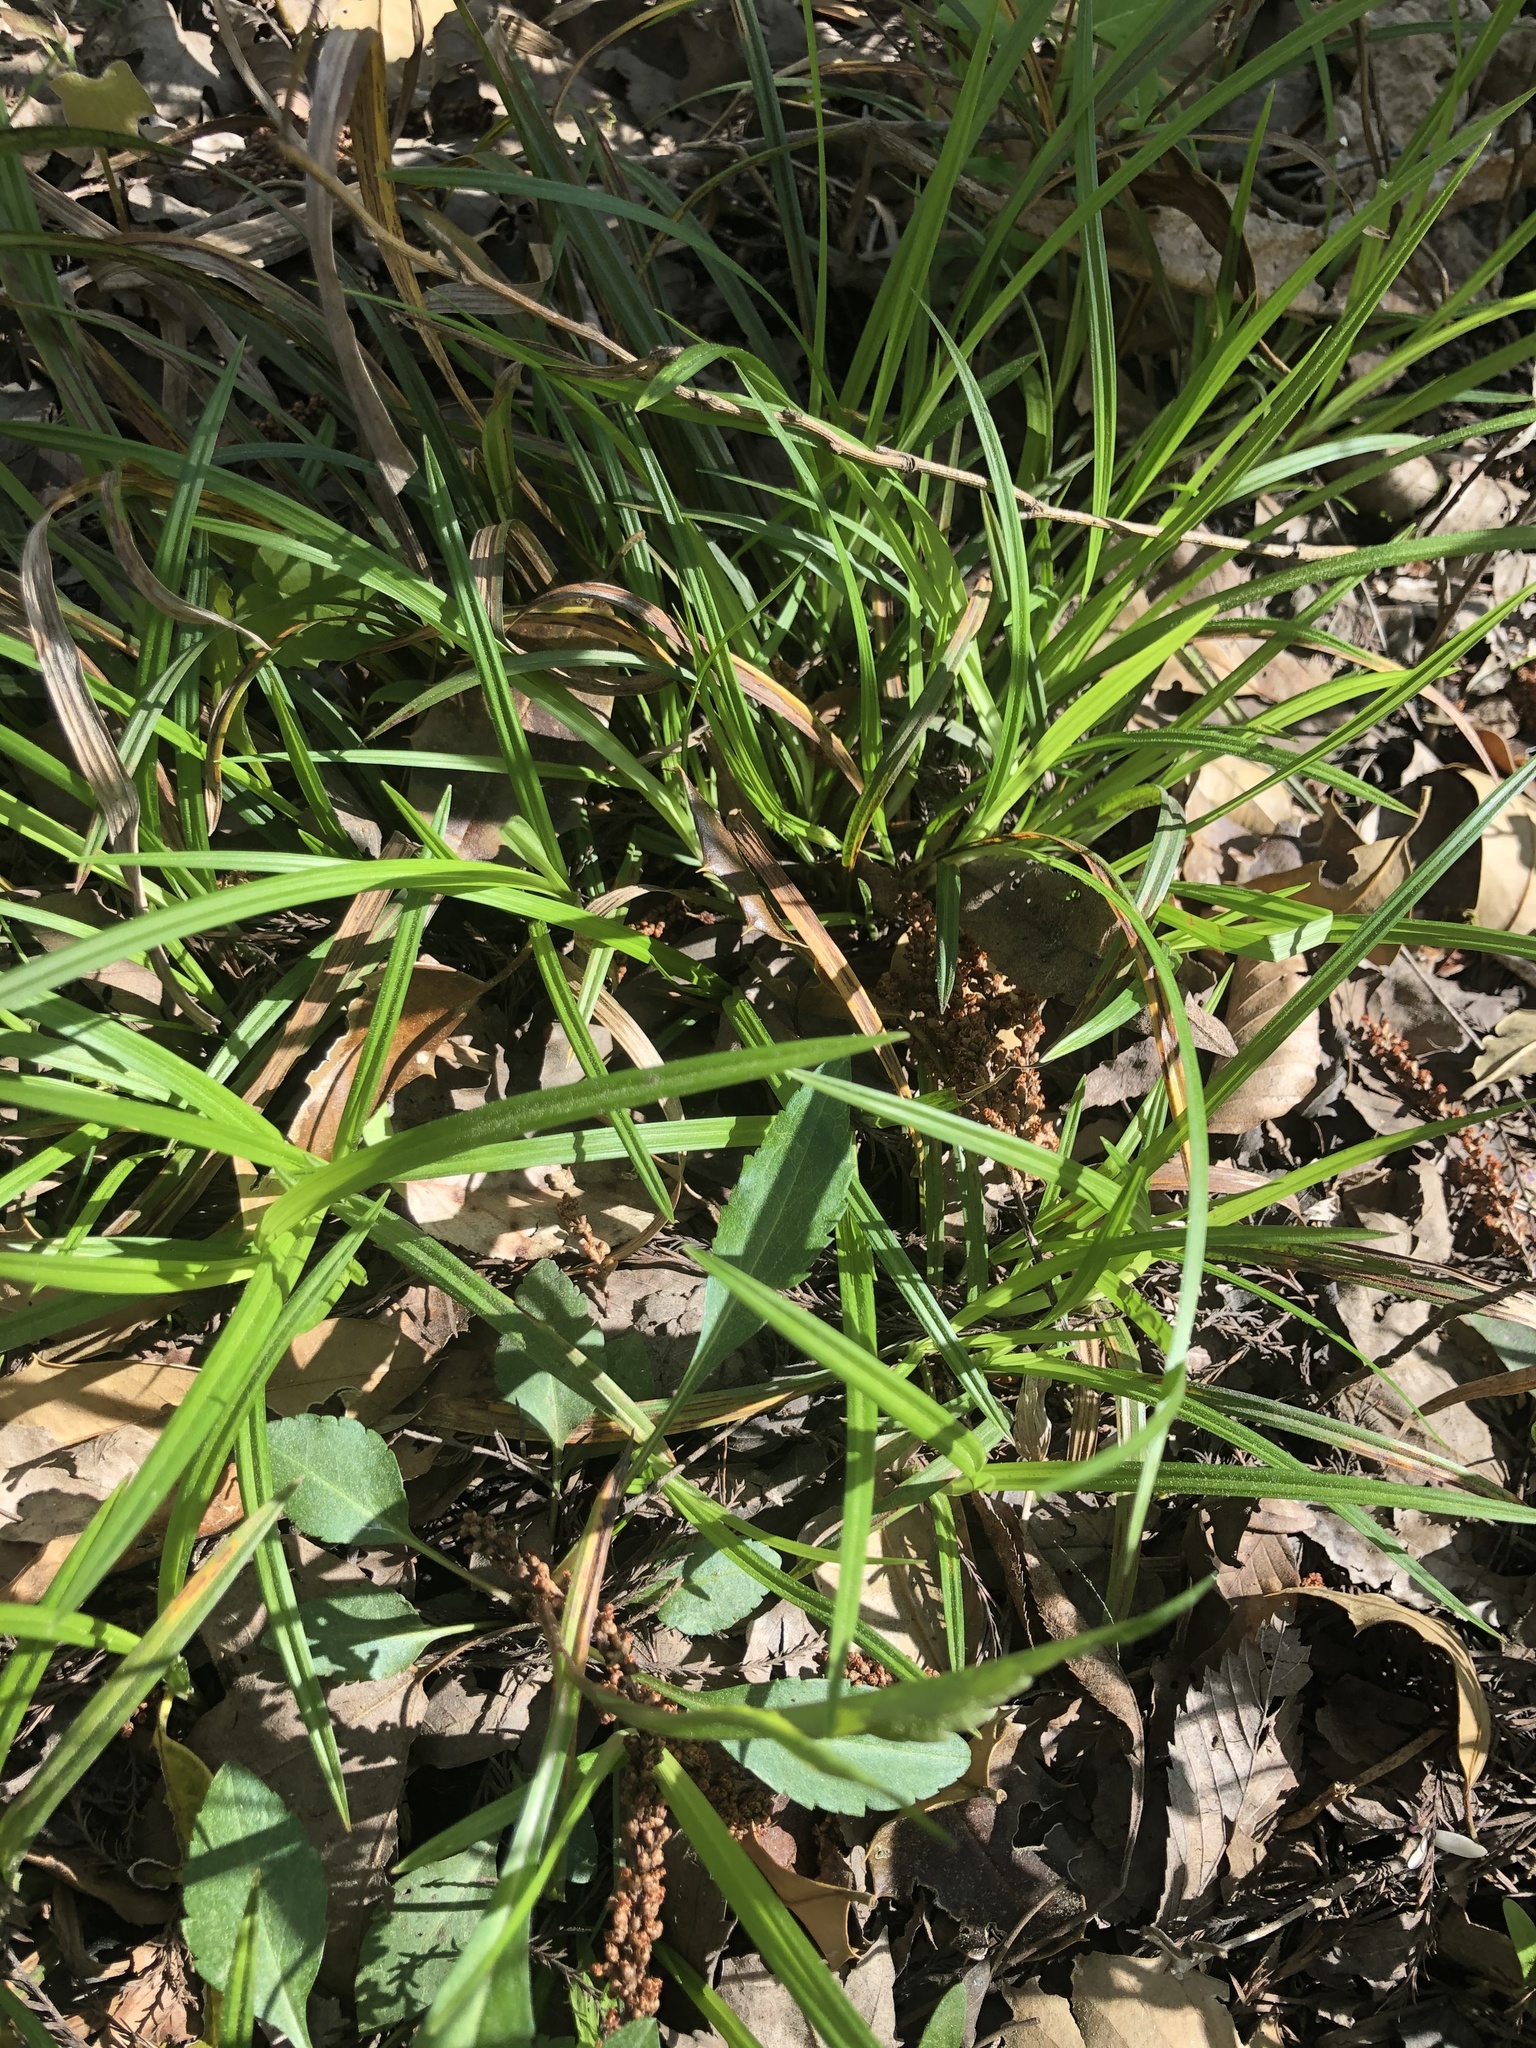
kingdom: Plantae
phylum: Tracheophyta
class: Liliopsida
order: Poales
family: Cyperaceae
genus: Carex
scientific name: Carex abscondita
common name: Thicket sedge
